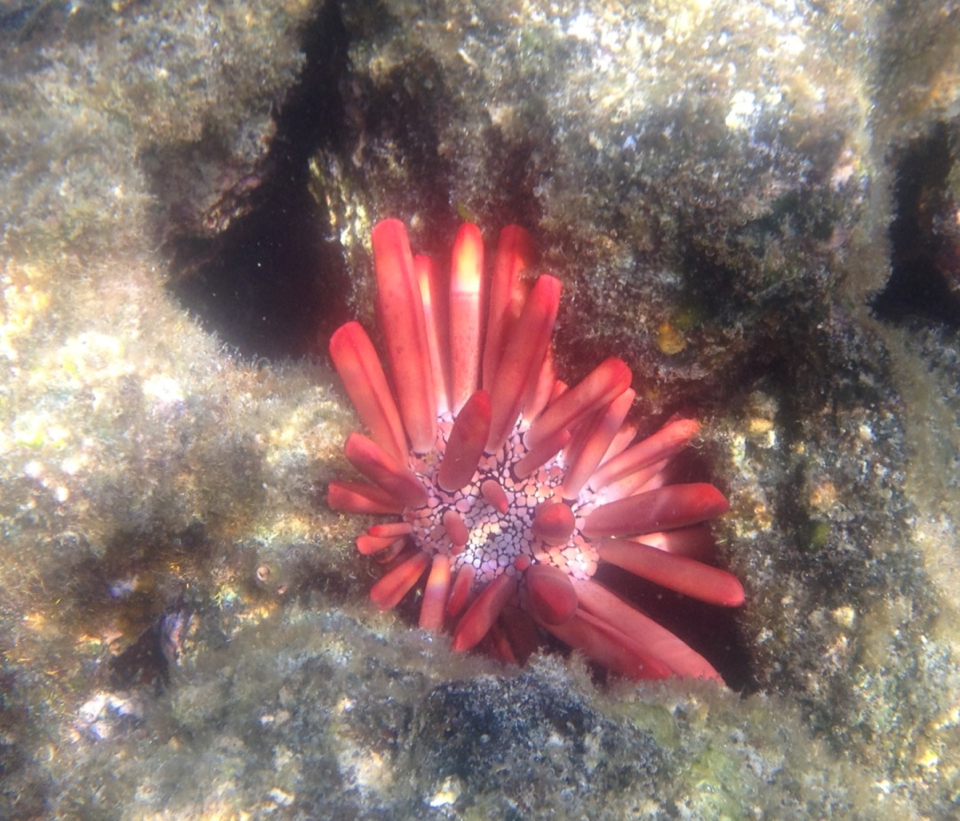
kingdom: Animalia
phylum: Echinodermata
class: Echinoidea
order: Camarodonta
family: Echinometridae
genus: Heterocentrotus
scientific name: Heterocentrotus mamillatus
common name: Slate pencil urchin
